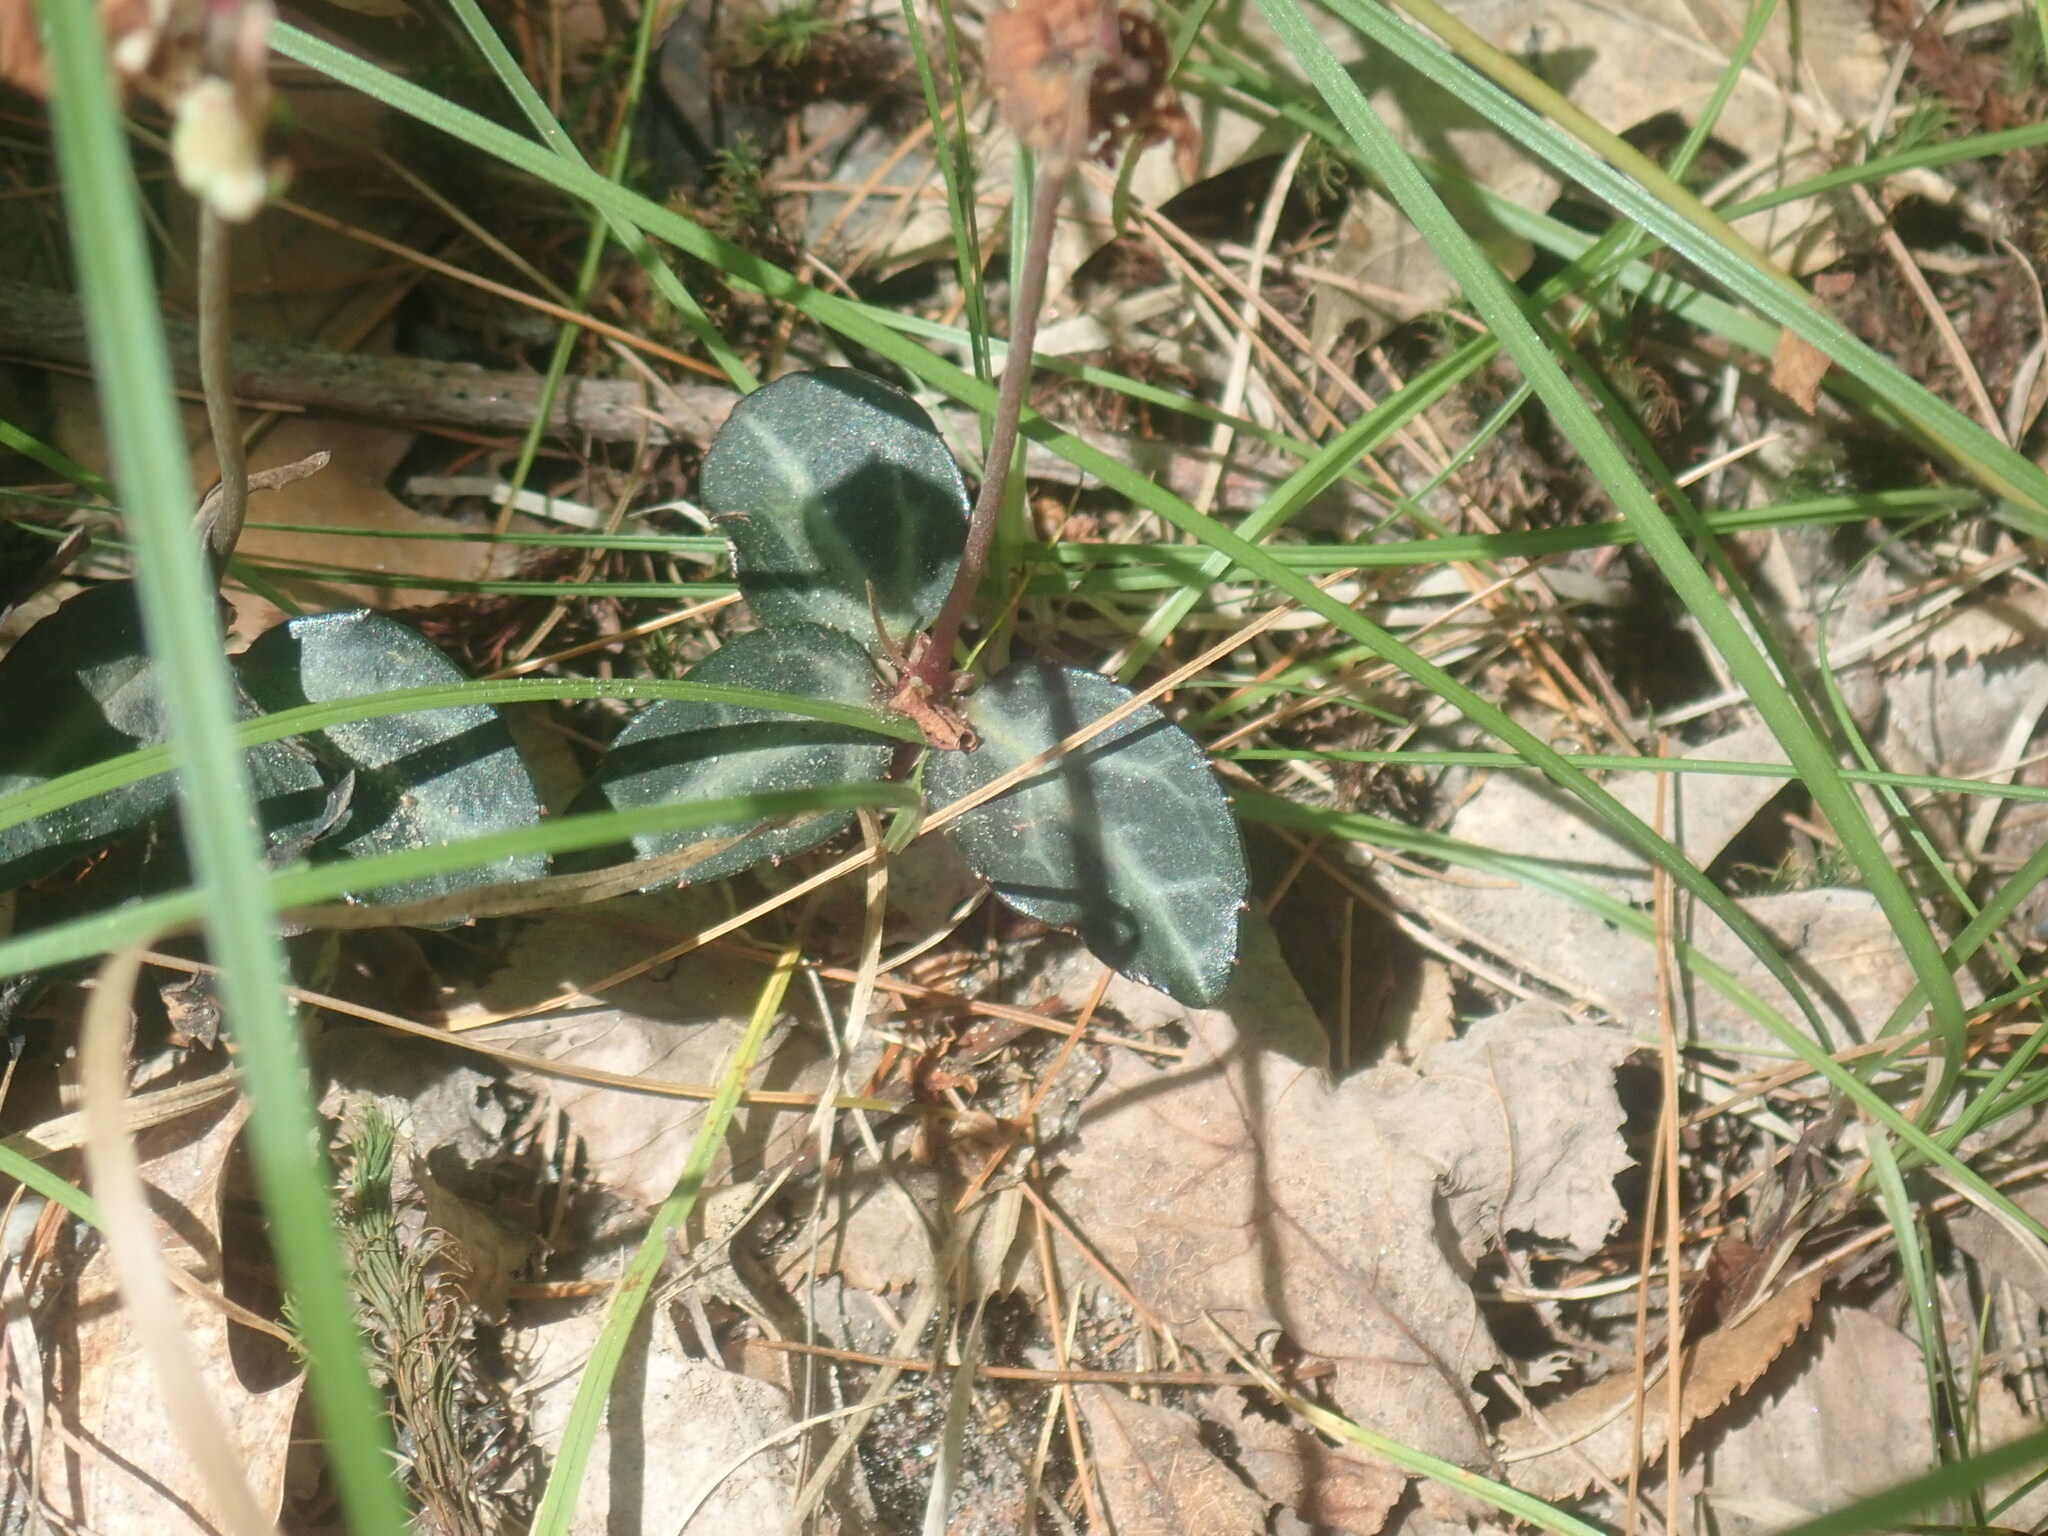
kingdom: Plantae
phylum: Tracheophyta
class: Magnoliopsida
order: Ericales
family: Ericaceae
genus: Chimaphila
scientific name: Chimaphila maculata
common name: Spotted pipsissewa
